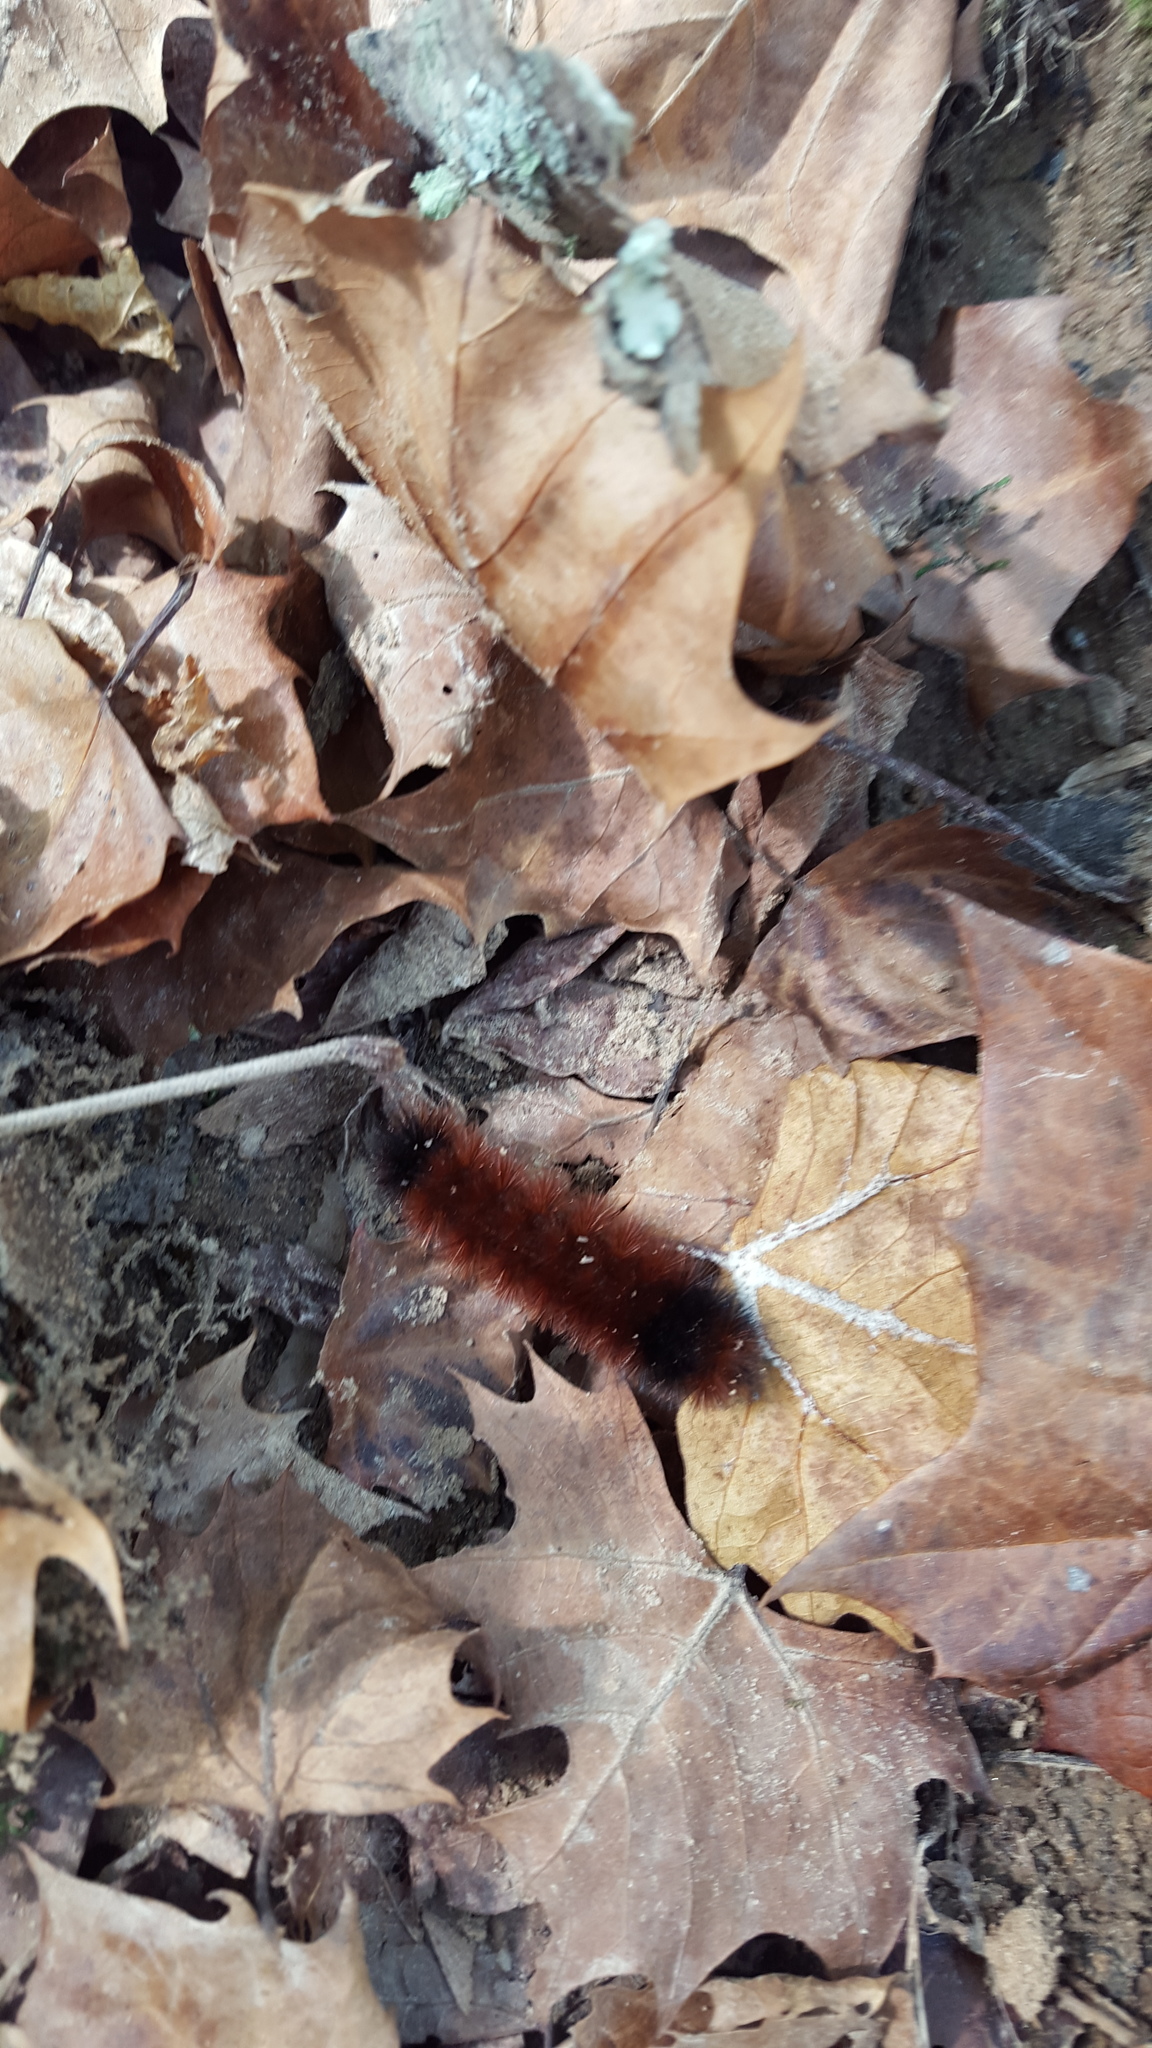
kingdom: Animalia
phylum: Arthropoda
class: Insecta
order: Lepidoptera
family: Erebidae
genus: Pyrrharctia
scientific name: Pyrrharctia isabella
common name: Isabella tiger moth
